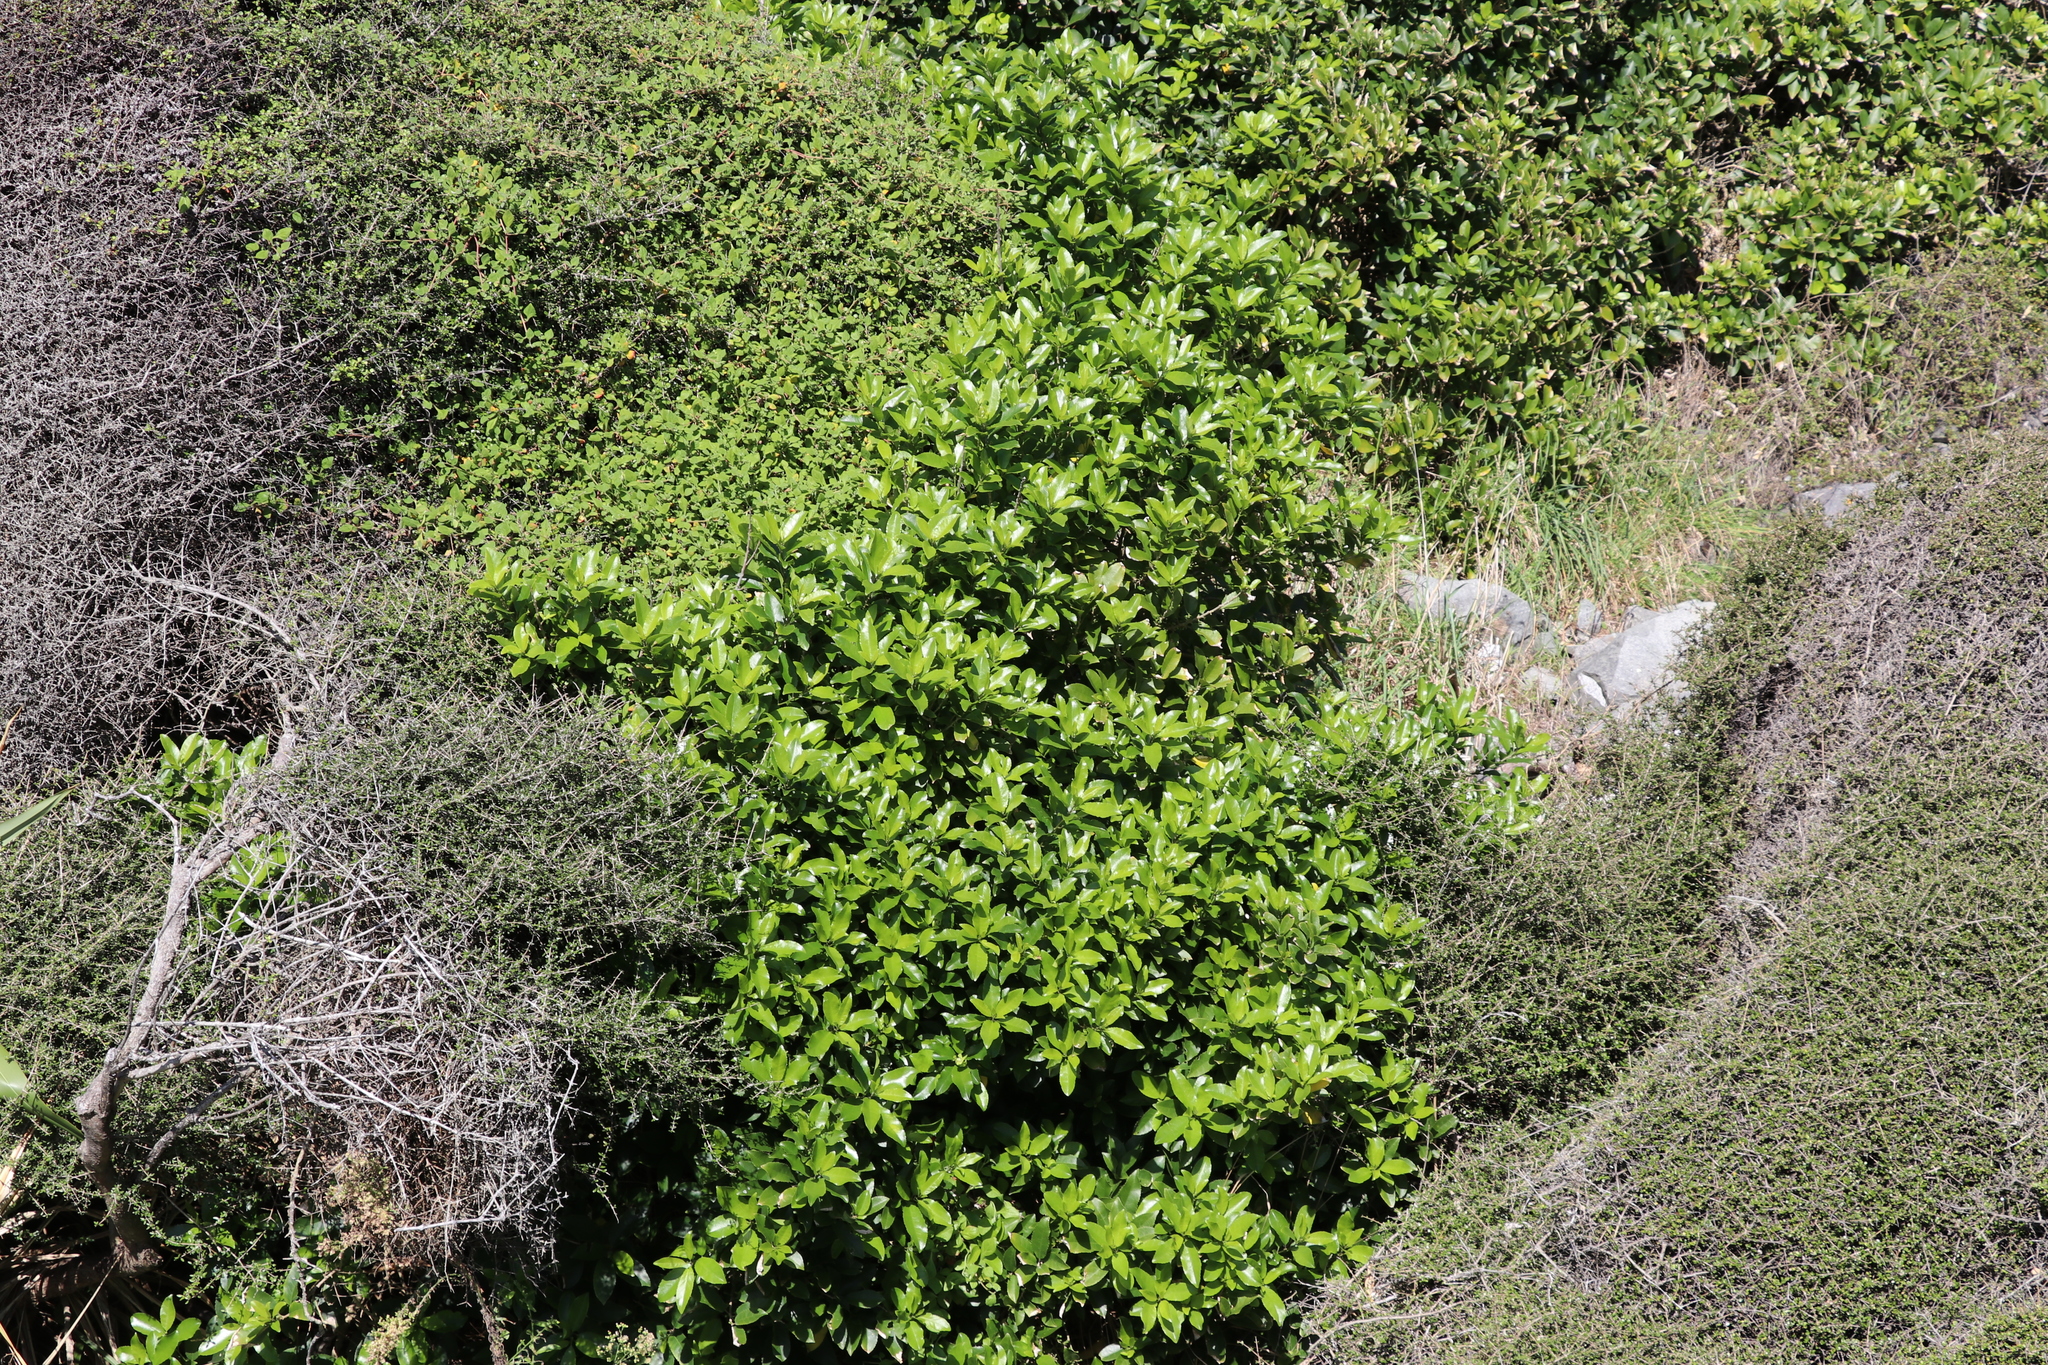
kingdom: Plantae
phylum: Tracheophyta
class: Magnoliopsida
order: Malpighiales
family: Violaceae
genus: Melicytus
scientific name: Melicytus ramiflorus
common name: Mahoe
